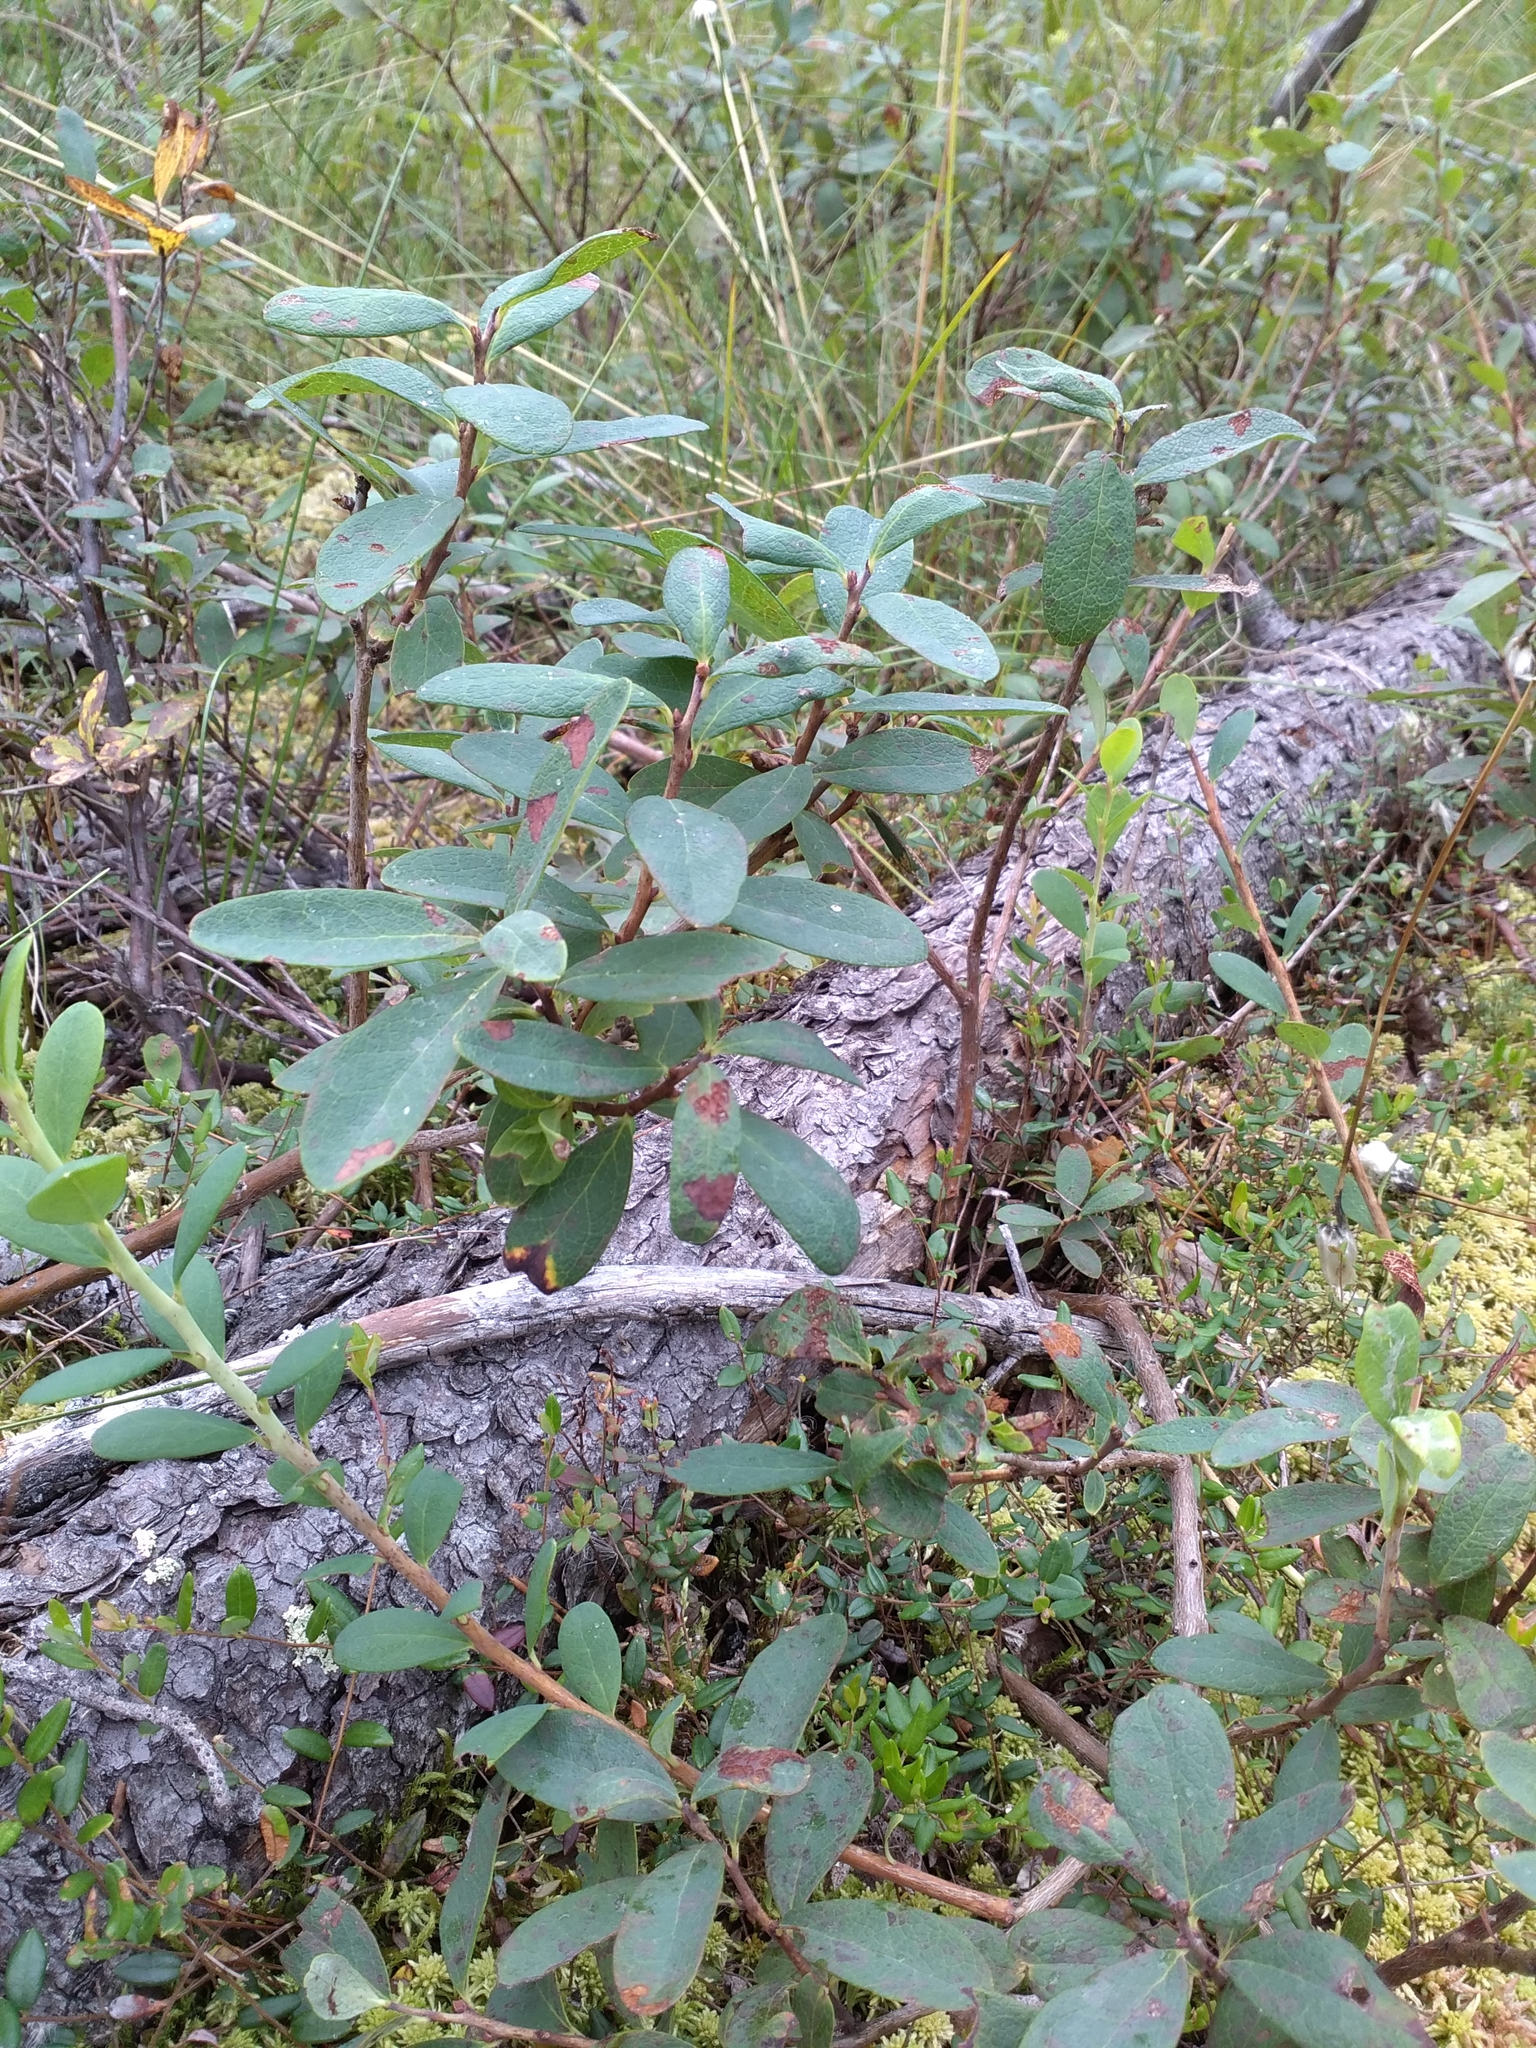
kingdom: Plantae
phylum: Tracheophyta
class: Magnoliopsida
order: Ericales
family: Ericaceae
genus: Vaccinium
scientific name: Vaccinium uliginosum
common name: Bog bilberry
